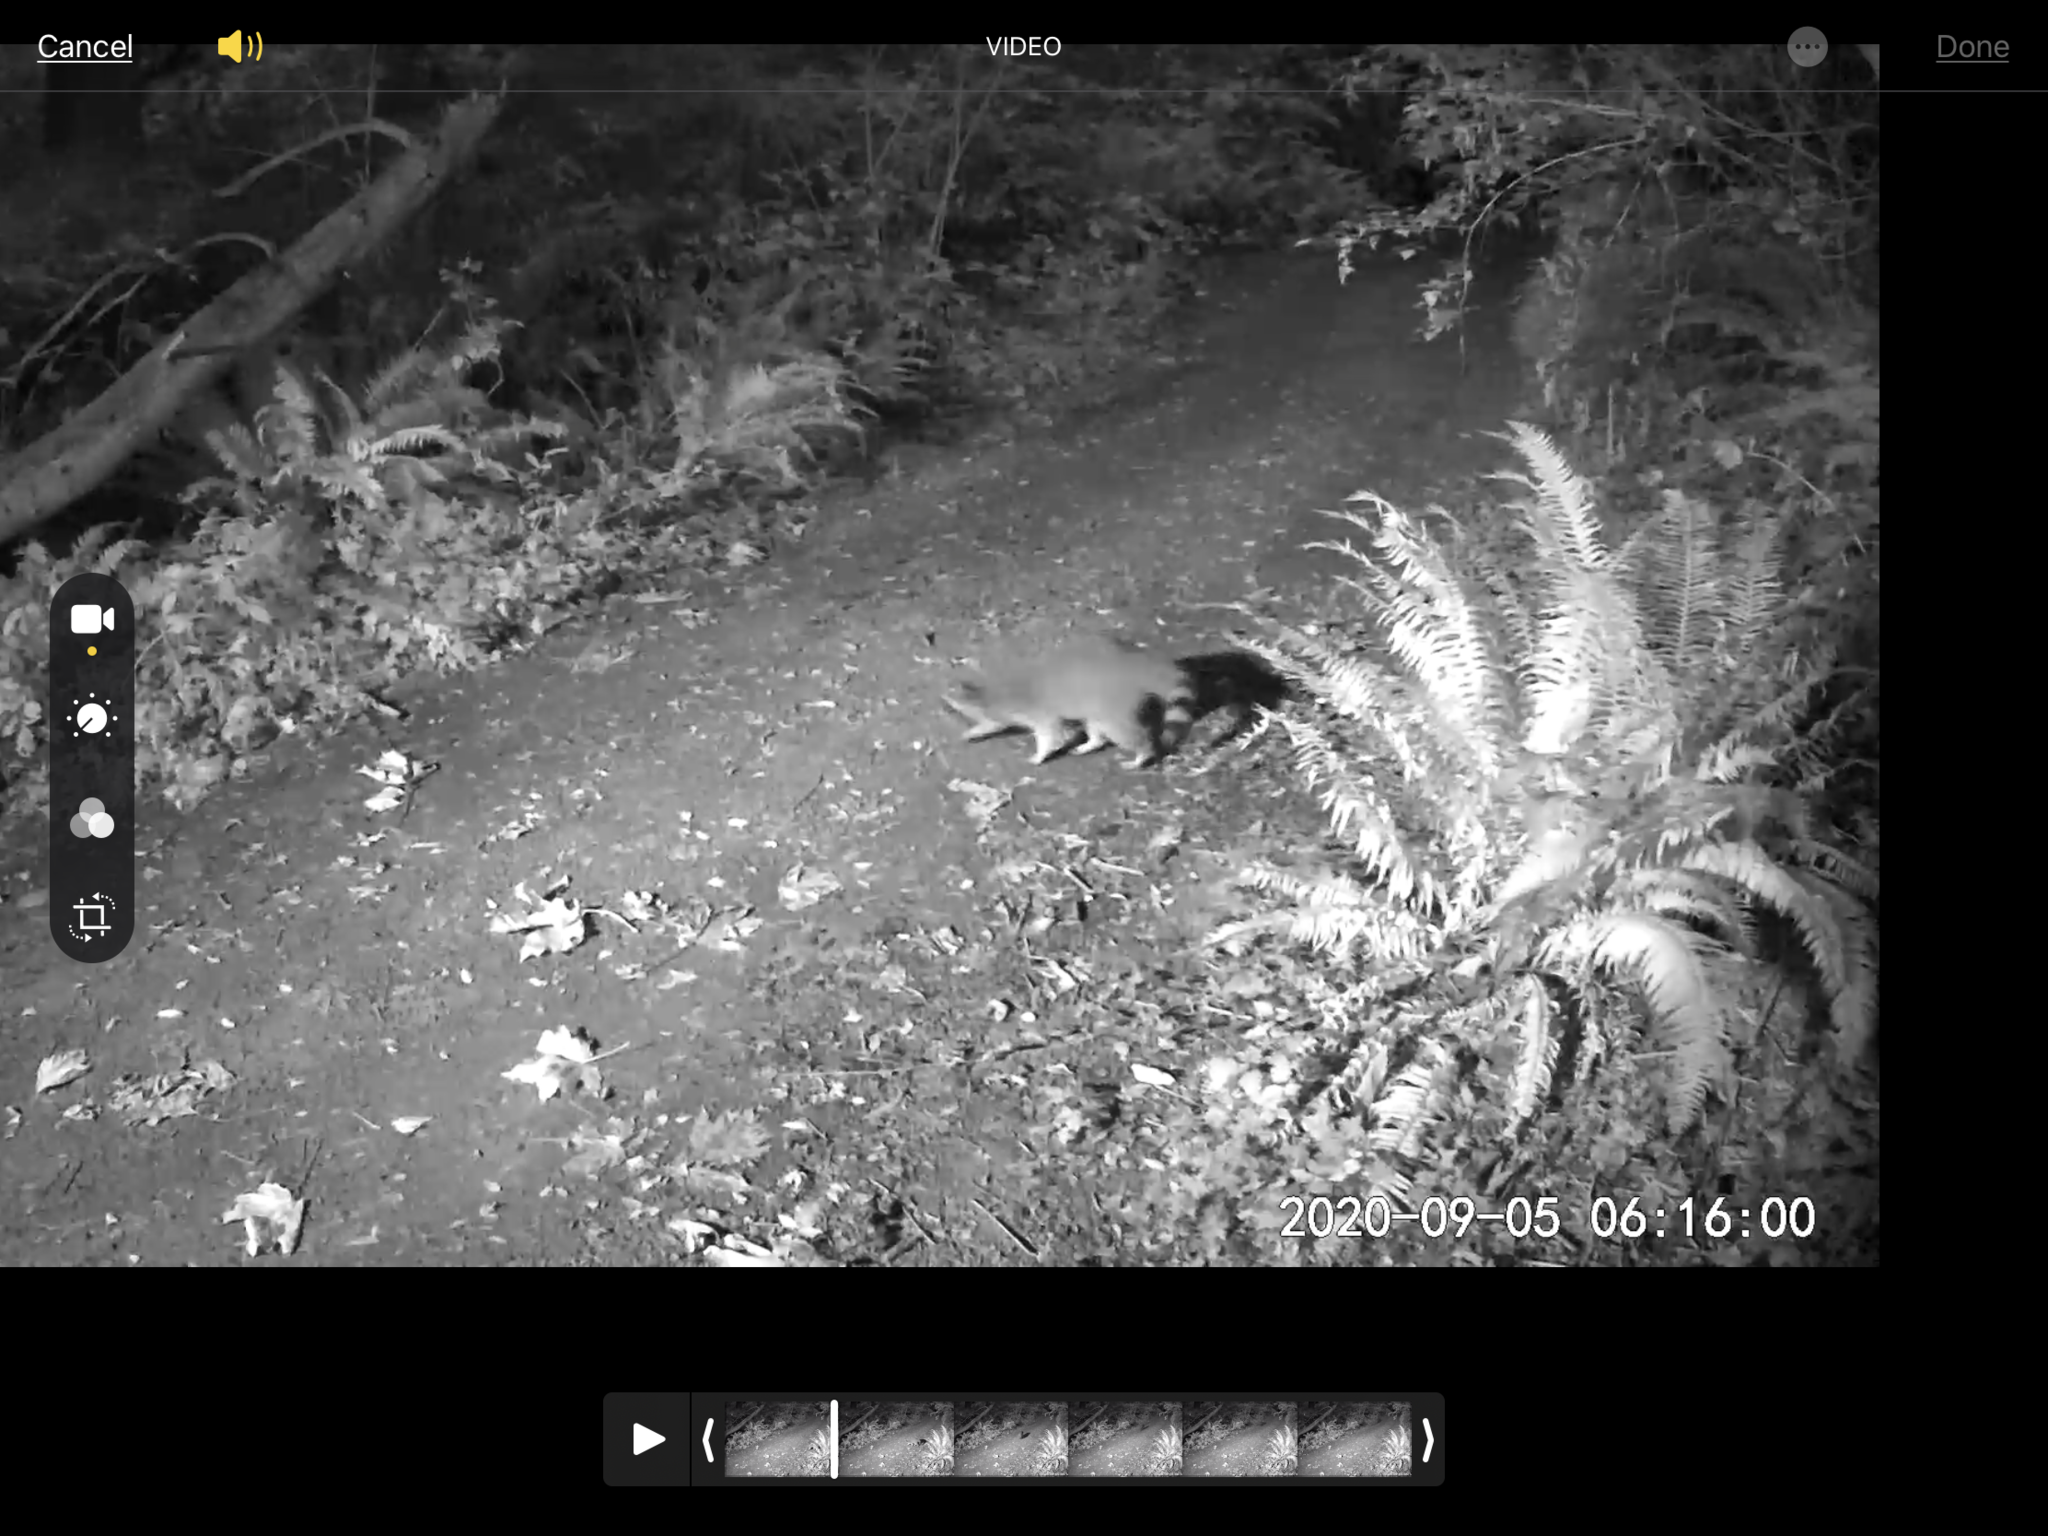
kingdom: Animalia
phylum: Chordata
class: Mammalia
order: Carnivora
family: Procyonidae
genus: Procyon
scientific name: Procyon lotor
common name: Raccoon
